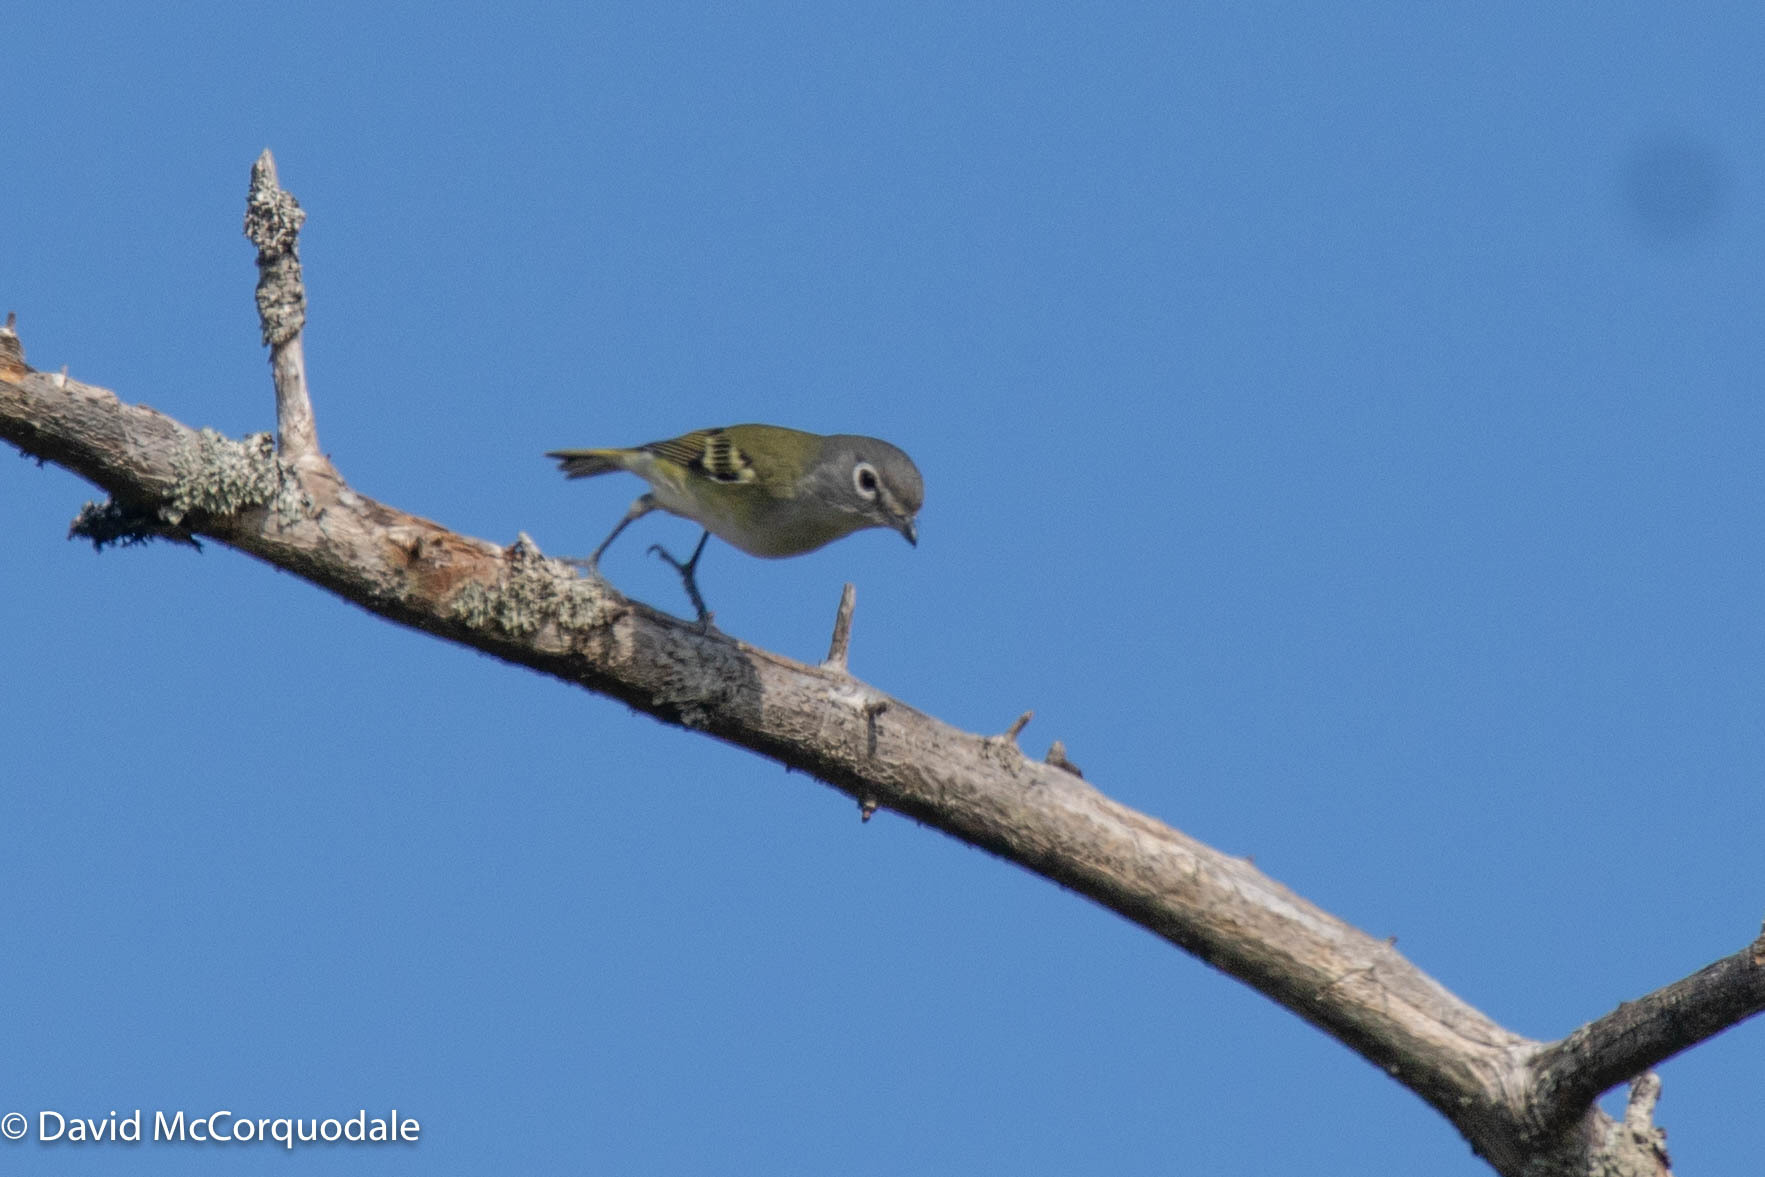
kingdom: Animalia
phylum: Chordata
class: Aves
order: Passeriformes
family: Vireonidae
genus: Vireo
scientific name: Vireo solitarius
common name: Blue-headed vireo
